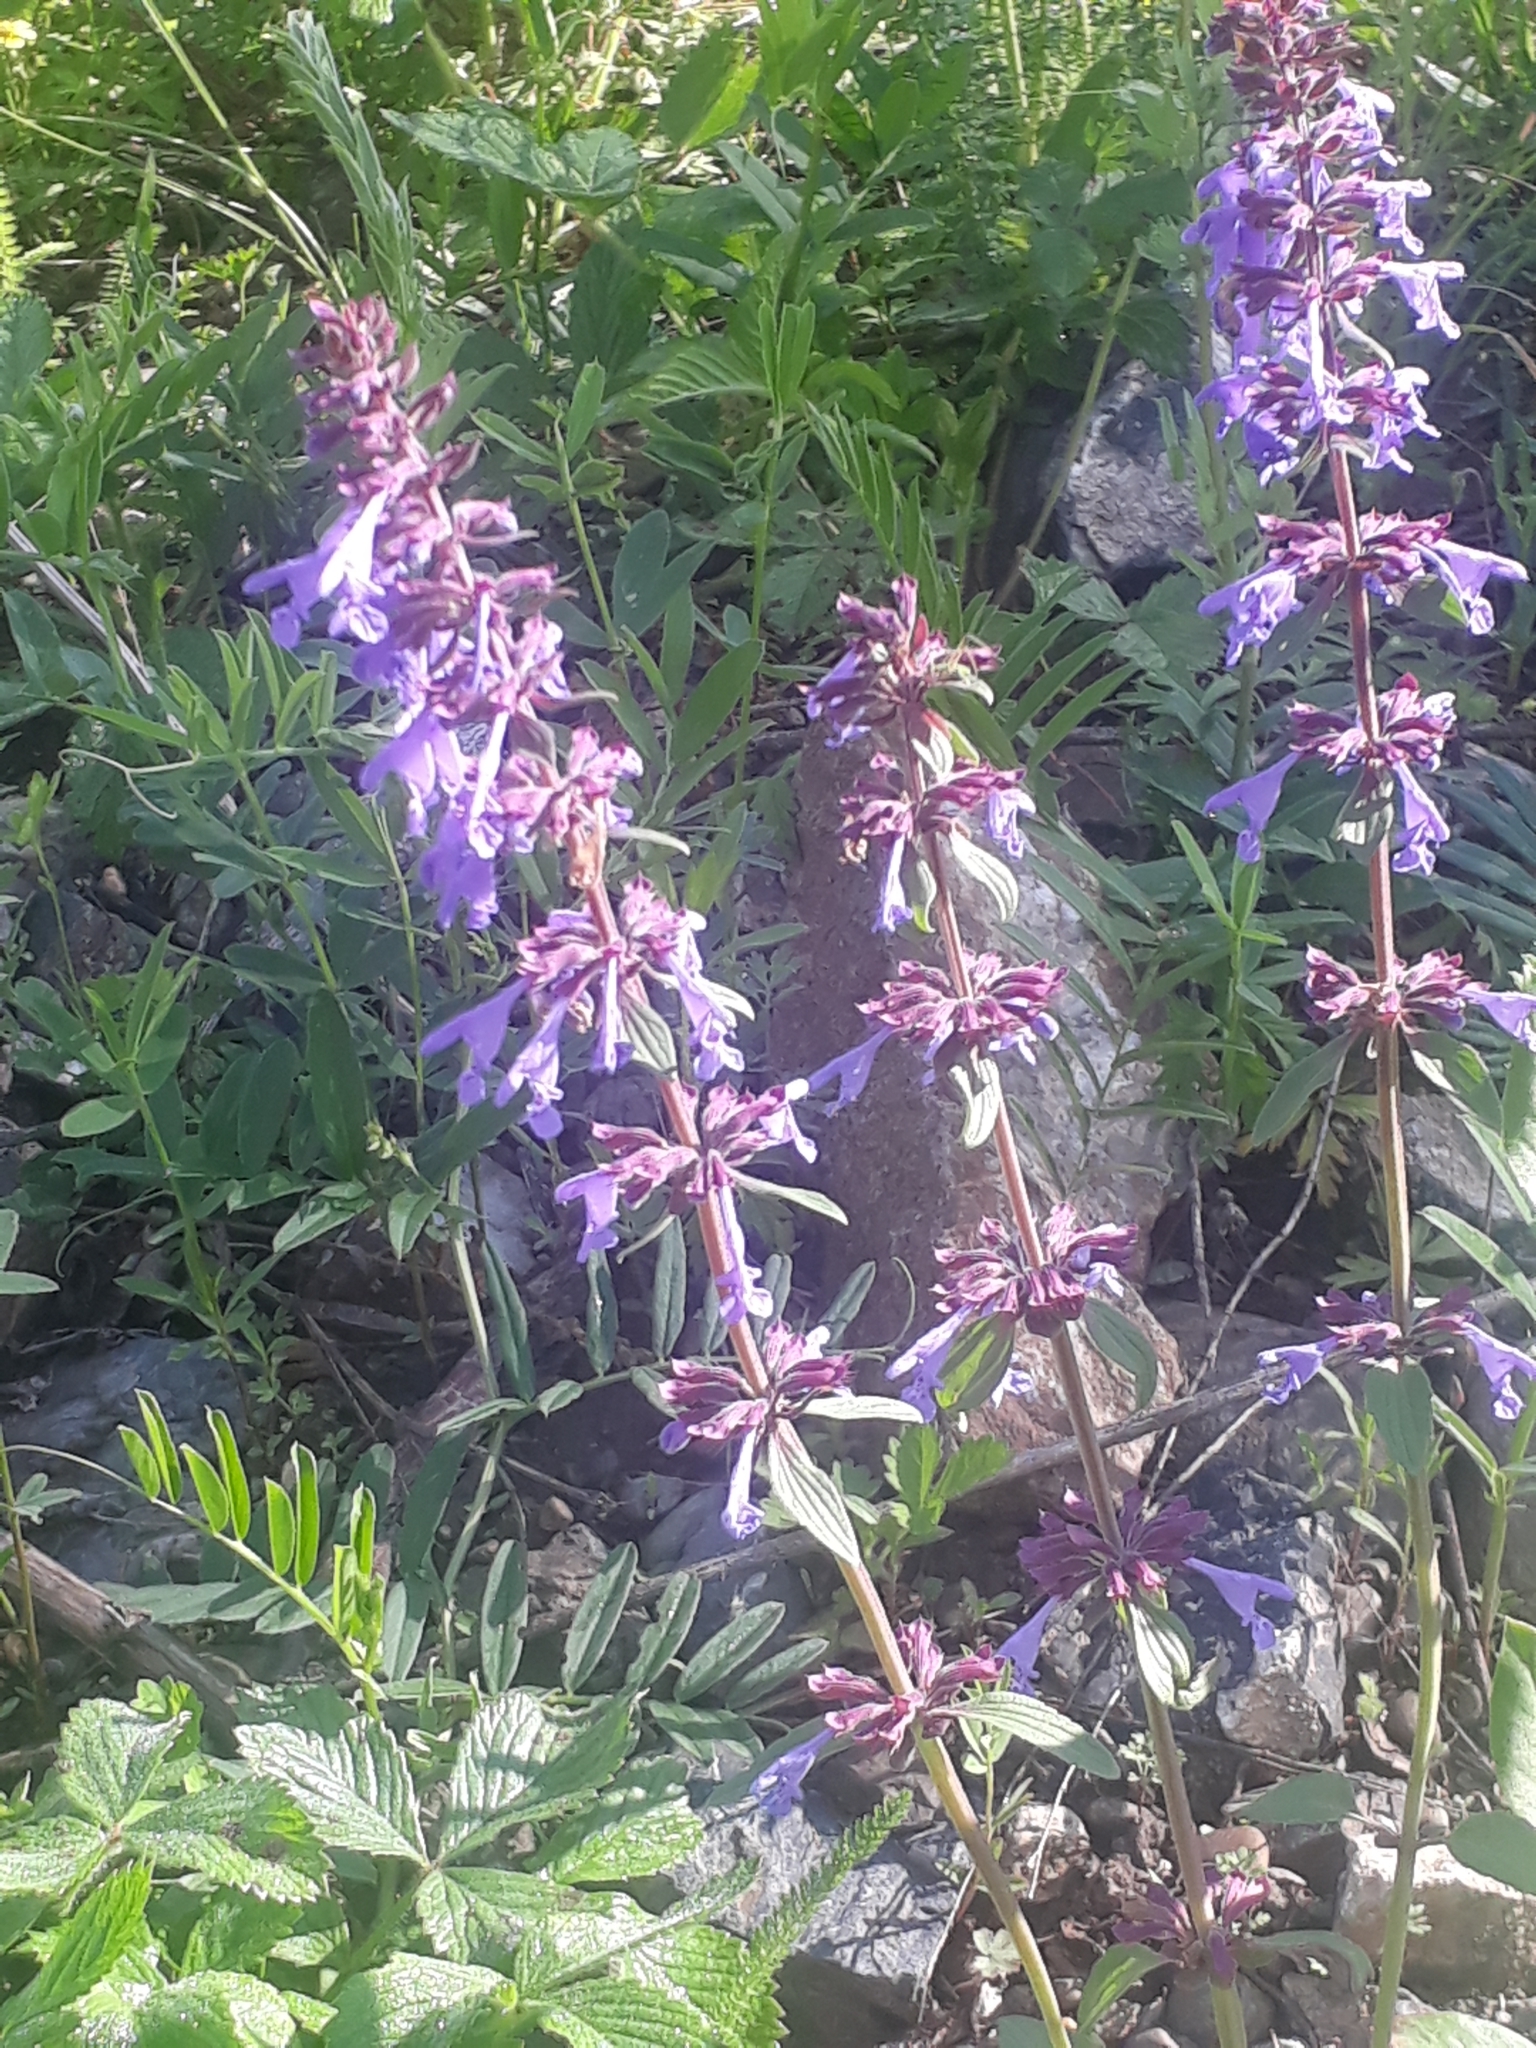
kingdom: Plantae
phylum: Tracheophyta
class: Magnoliopsida
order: Lamiales
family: Lamiaceae
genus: Dracocephalum
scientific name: Dracocephalum nutans
